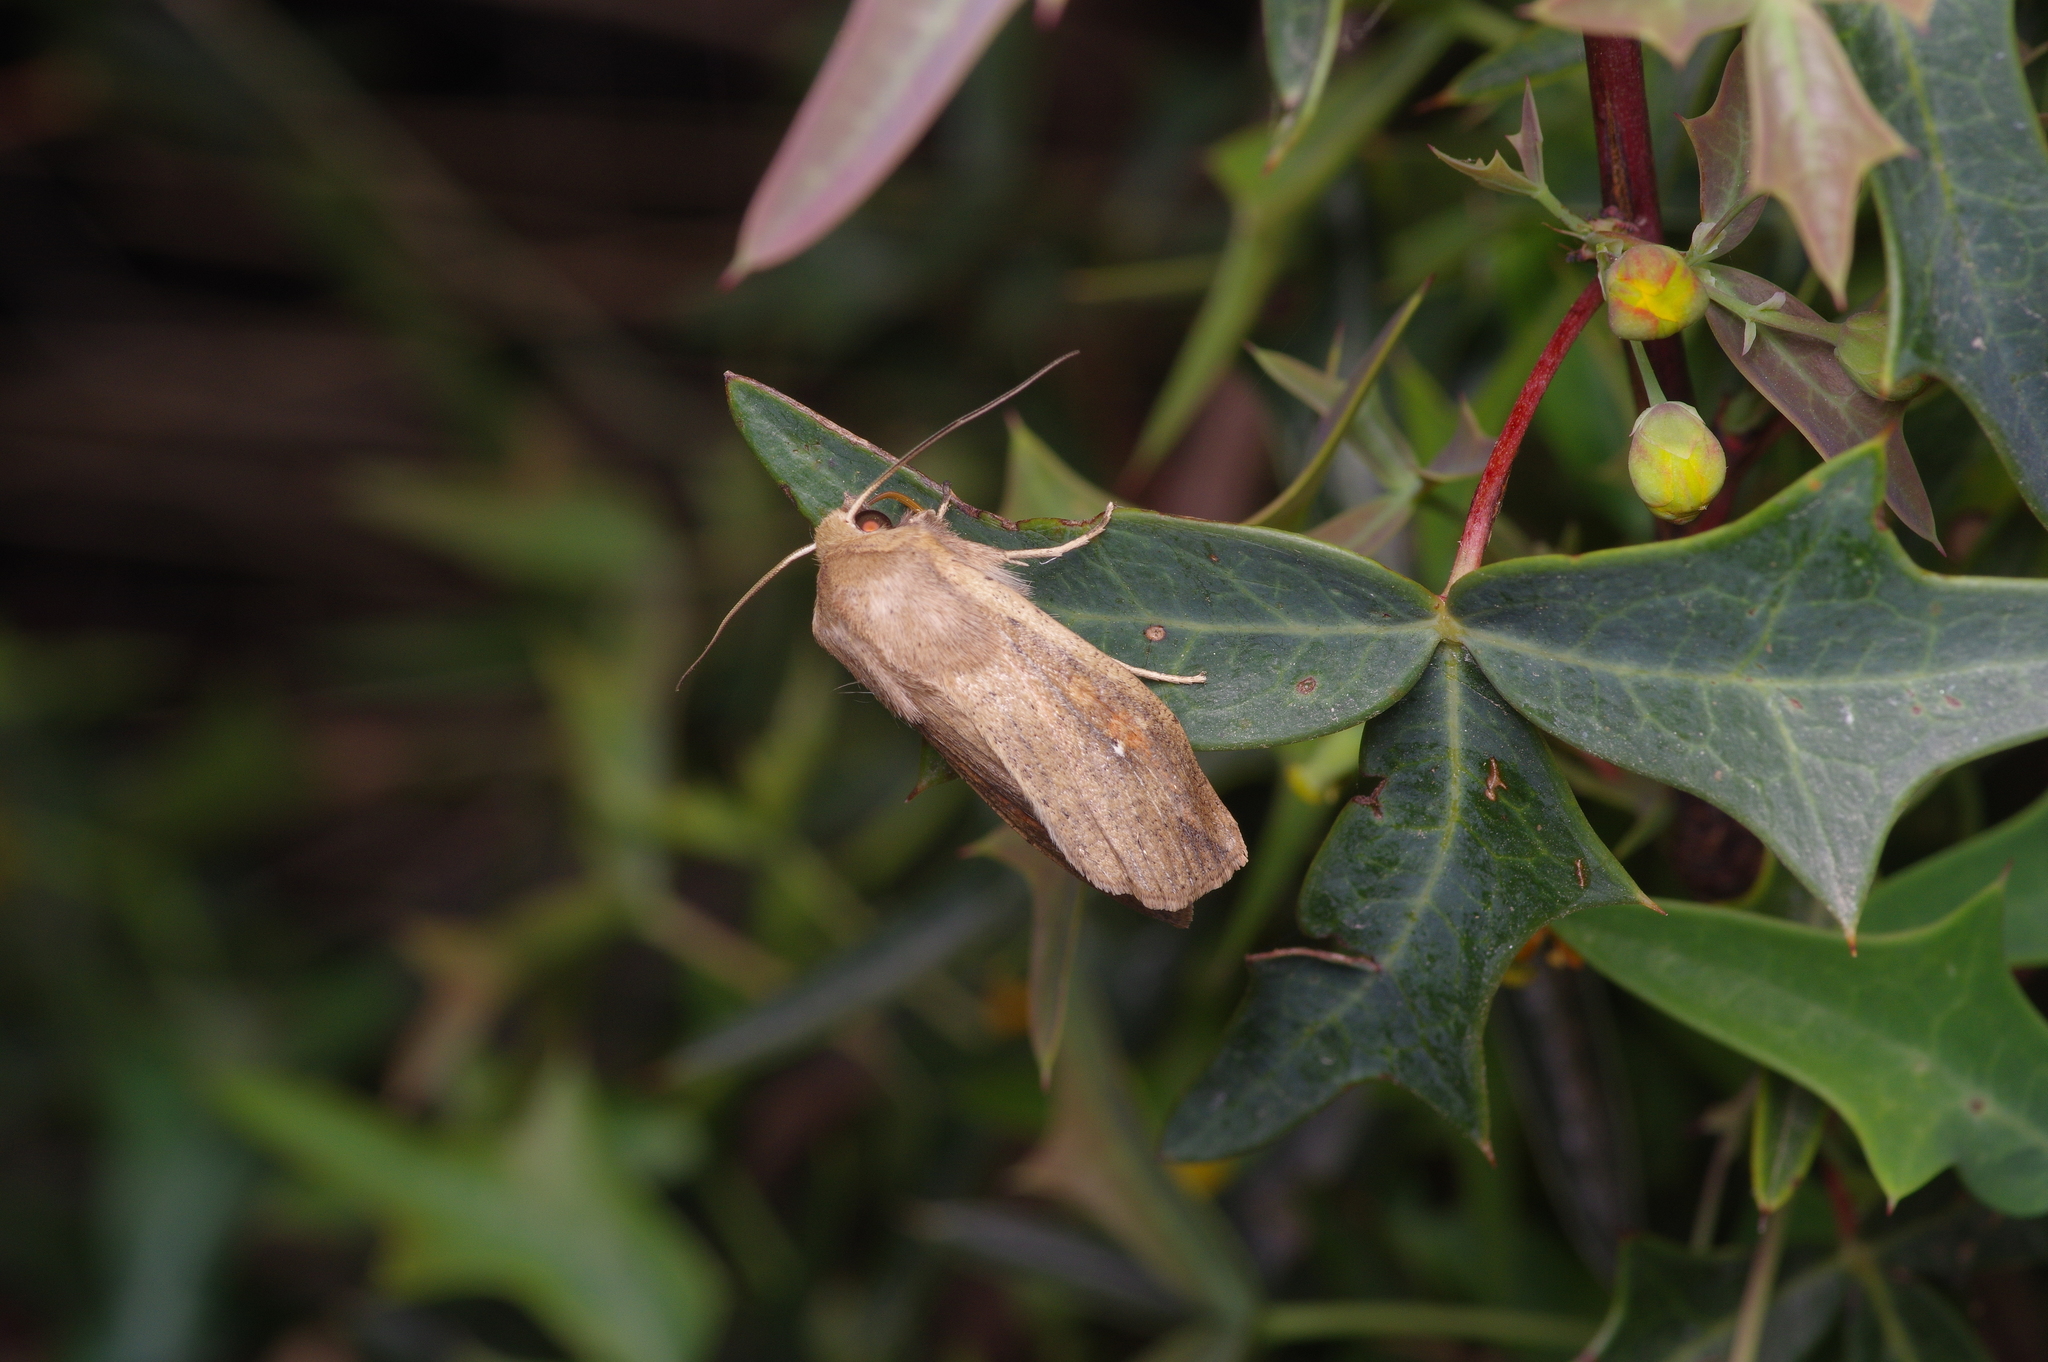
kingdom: Animalia
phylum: Arthropoda
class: Insecta
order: Lepidoptera
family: Noctuidae
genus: Mythimna
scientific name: Mythimna unipuncta
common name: White-speck
